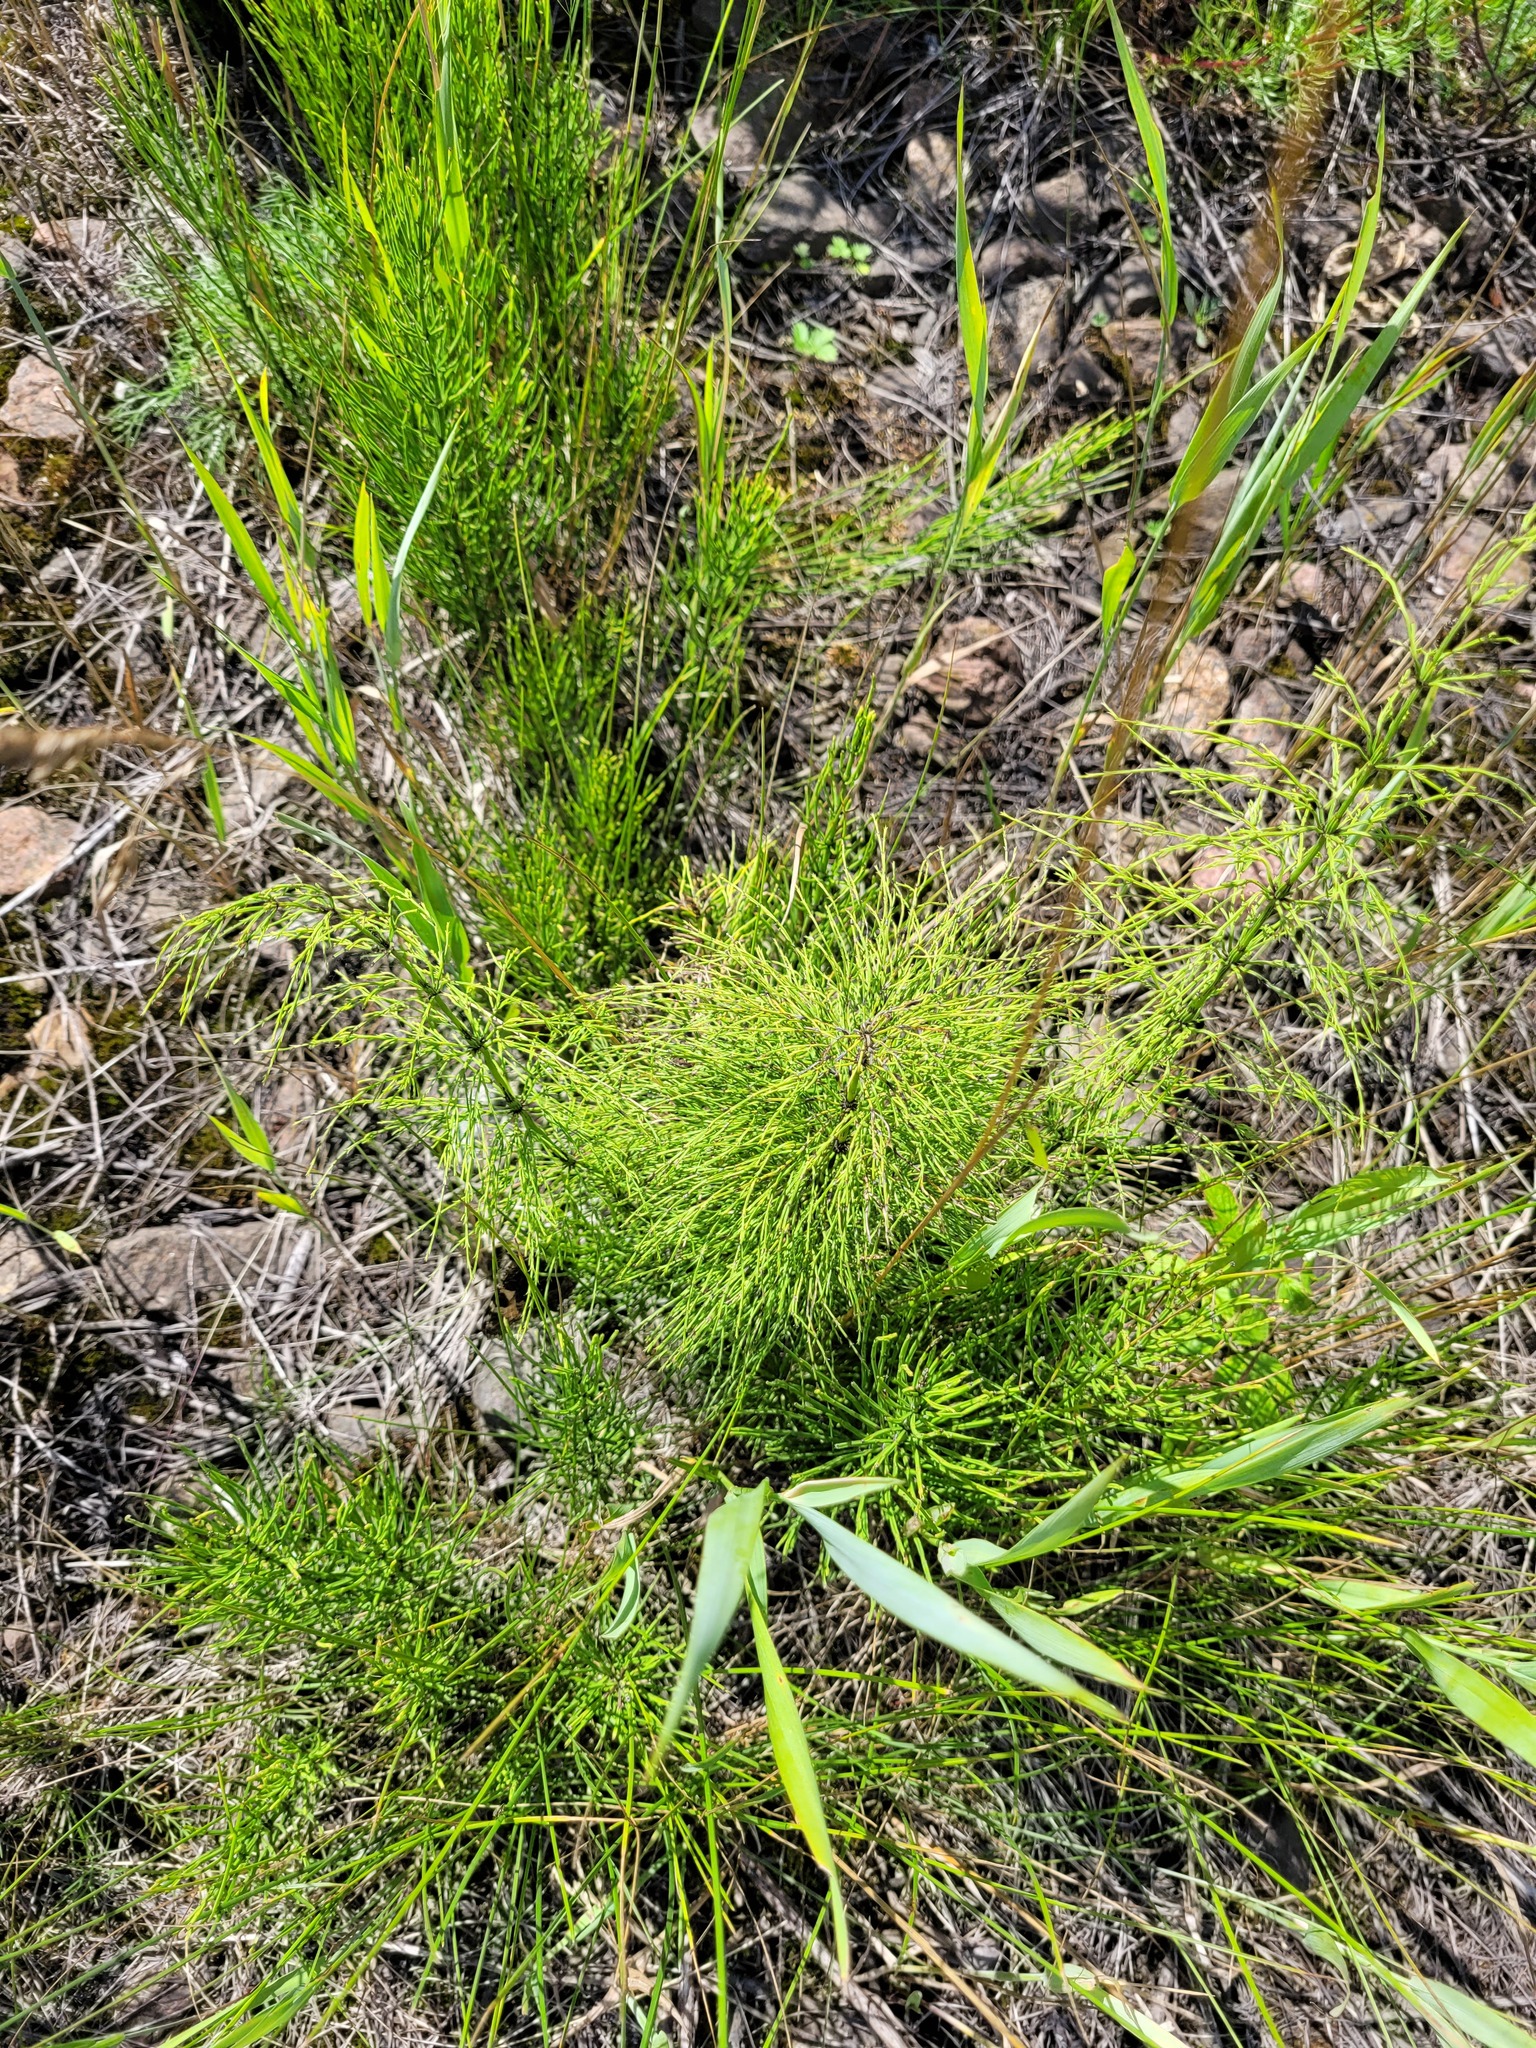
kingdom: Plantae
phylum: Tracheophyta
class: Polypodiopsida
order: Equisetales
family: Equisetaceae
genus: Equisetum
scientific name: Equisetum sylvaticum
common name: Wood horsetail
